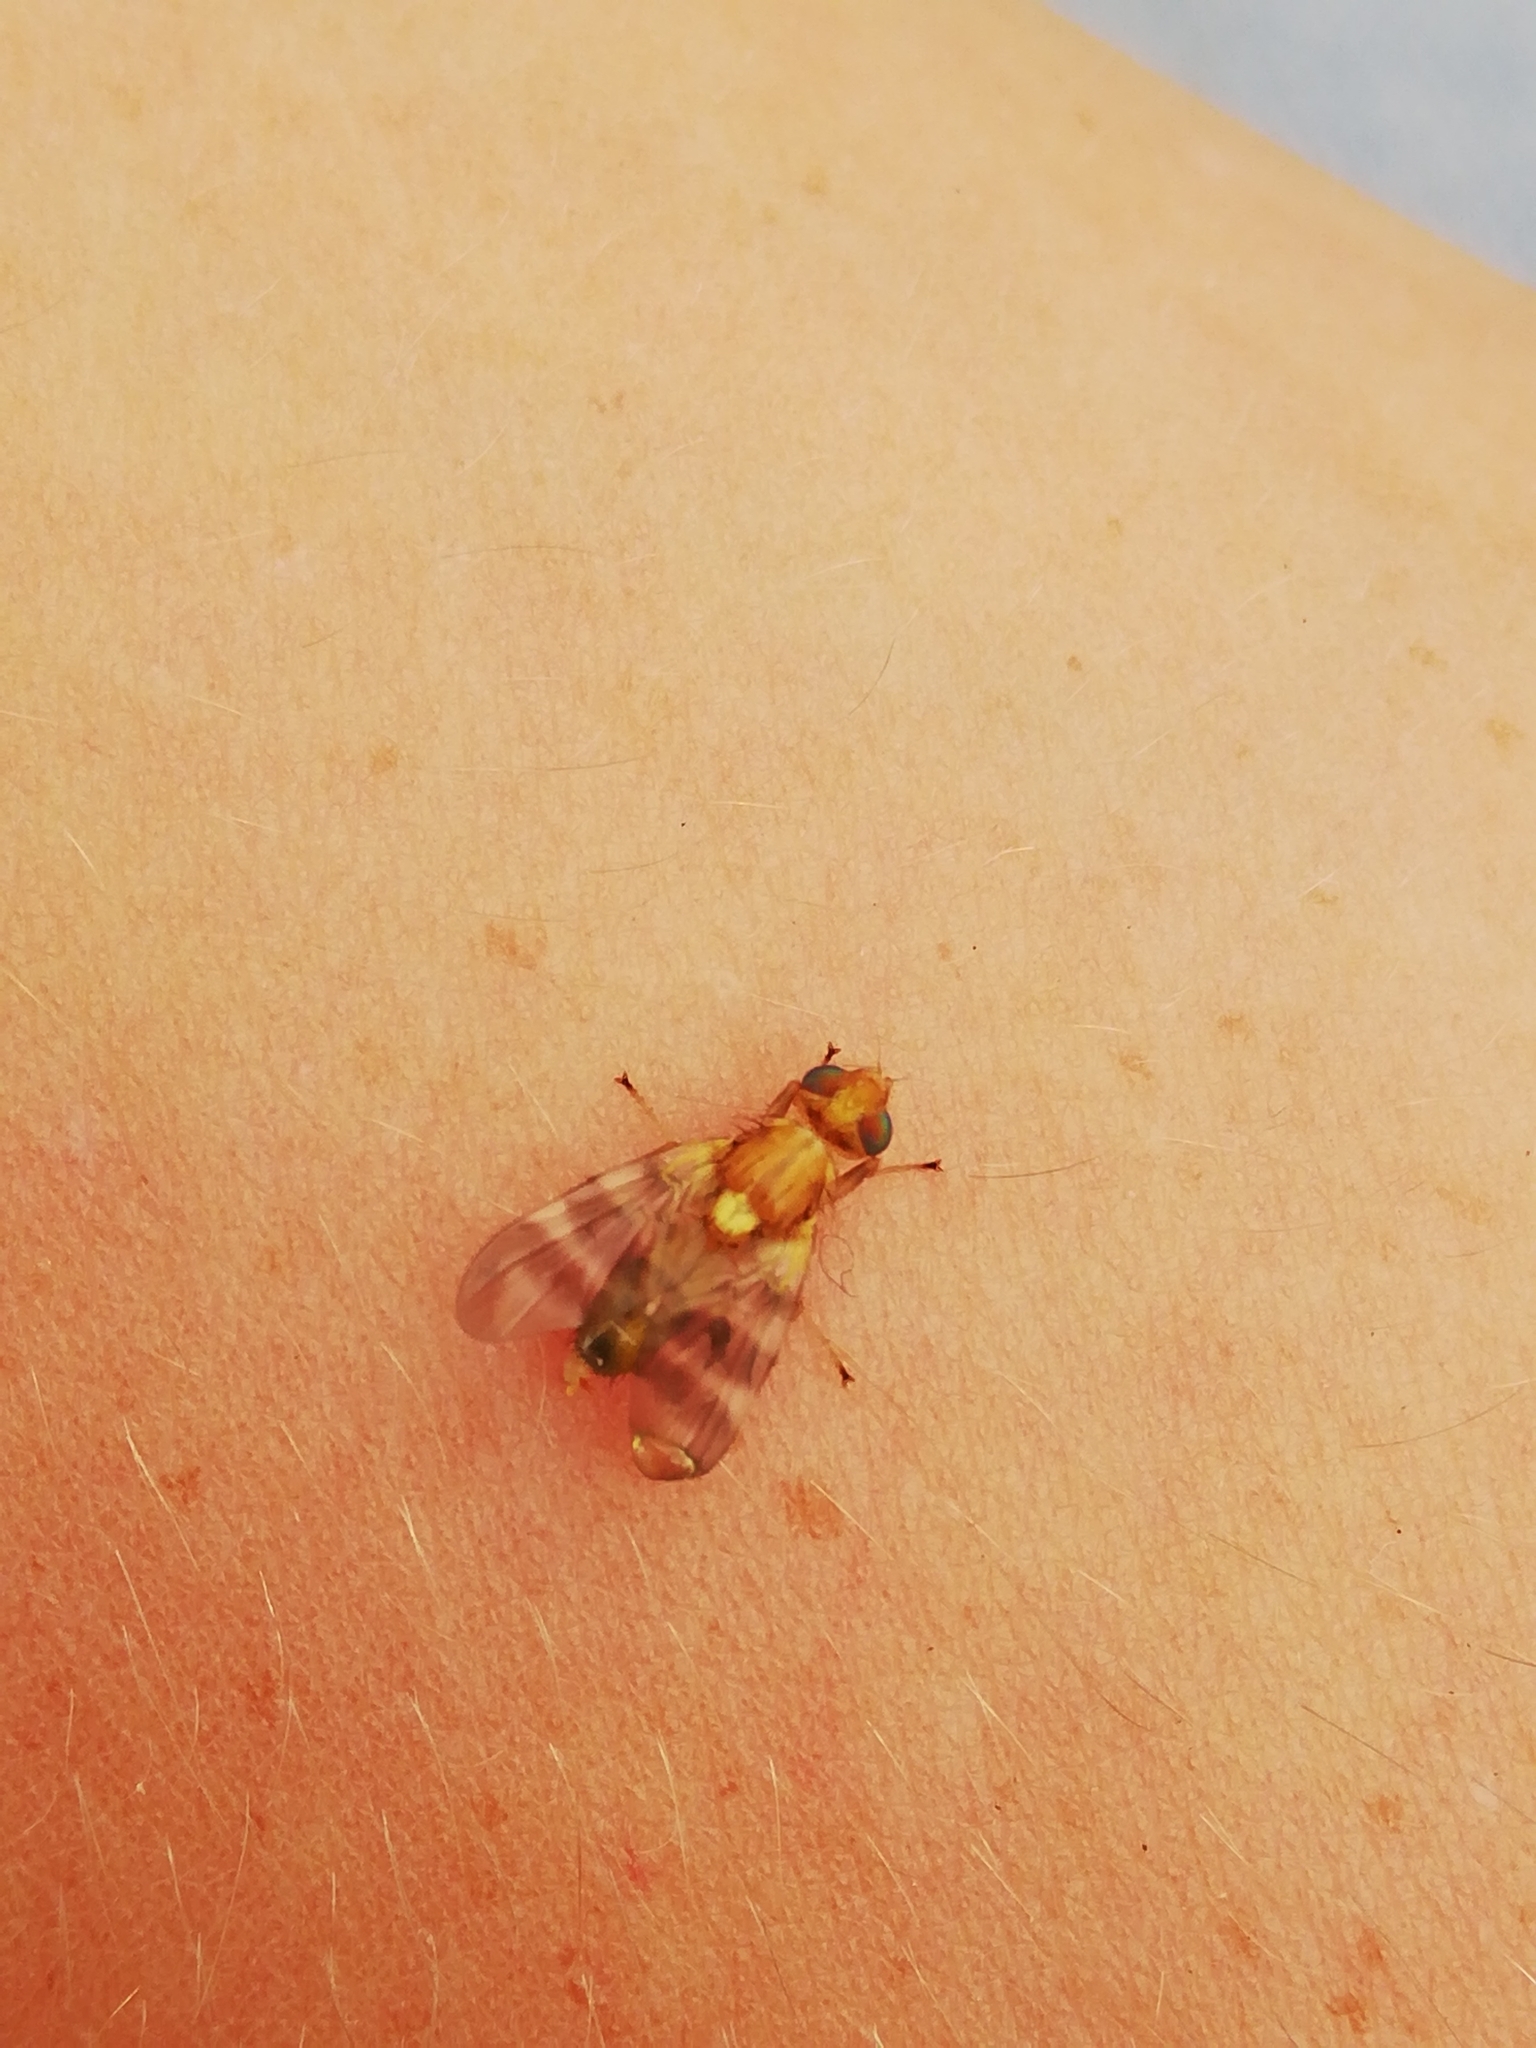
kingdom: Animalia
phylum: Arthropoda
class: Insecta
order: Diptera
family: Tephritidae
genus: Rhagoletis
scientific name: Rhagoletis completa
